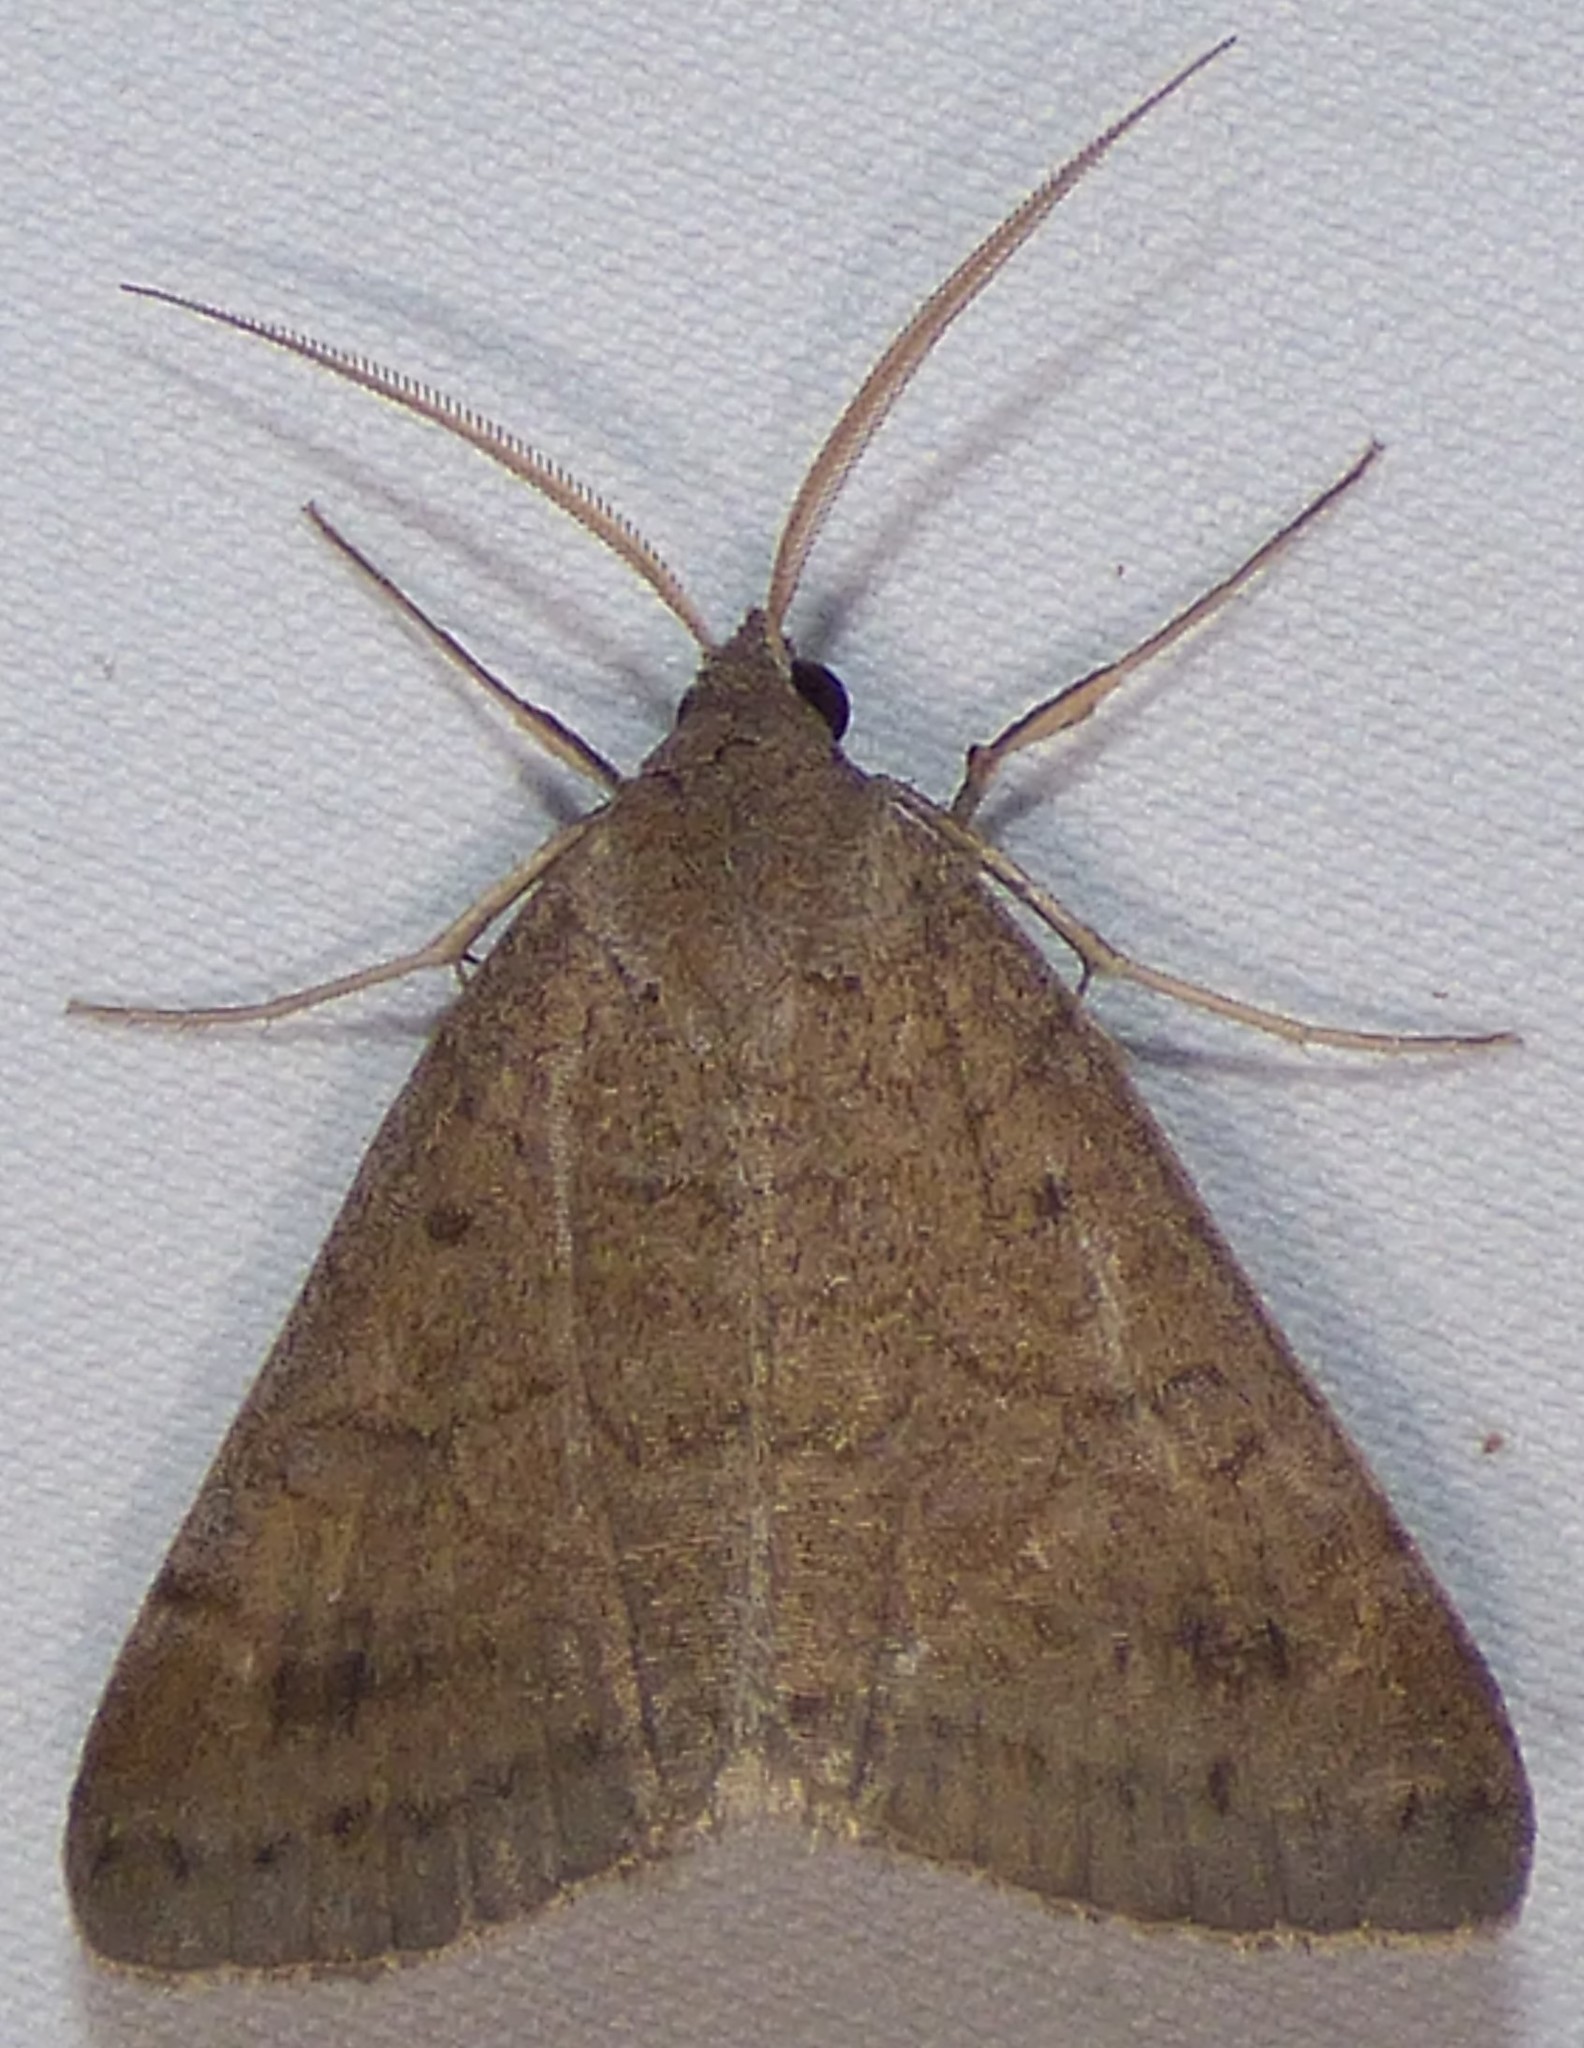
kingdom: Animalia
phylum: Arthropoda
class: Insecta
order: Lepidoptera
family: Erebidae
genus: Caenurgia
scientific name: Caenurgia chloropha
